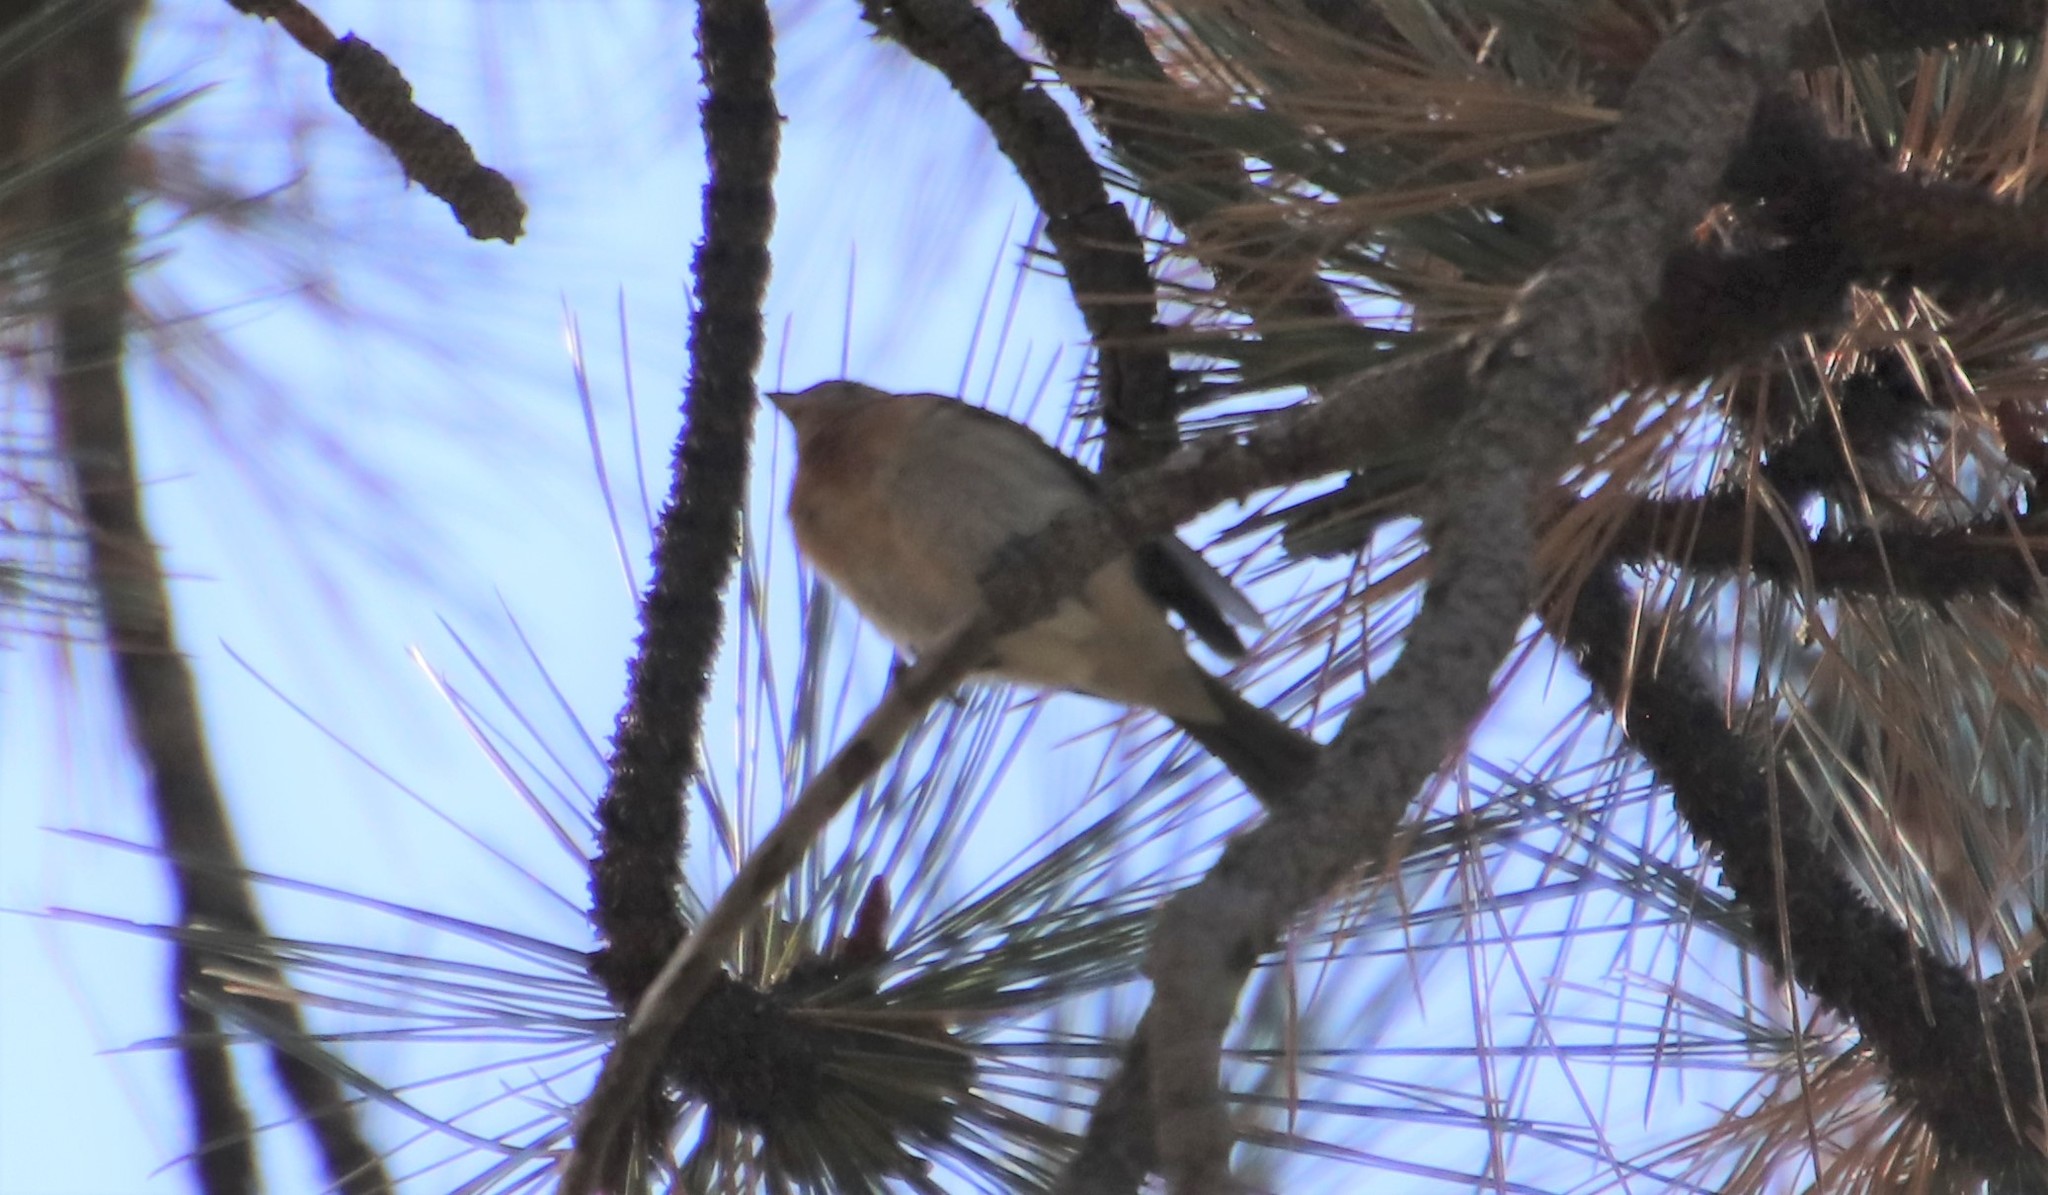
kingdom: Animalia
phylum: Chordata
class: Aves
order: Passeriformes
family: Cardinalidae
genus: Passerina
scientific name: Passerina amoena
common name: Lazuli bunting
